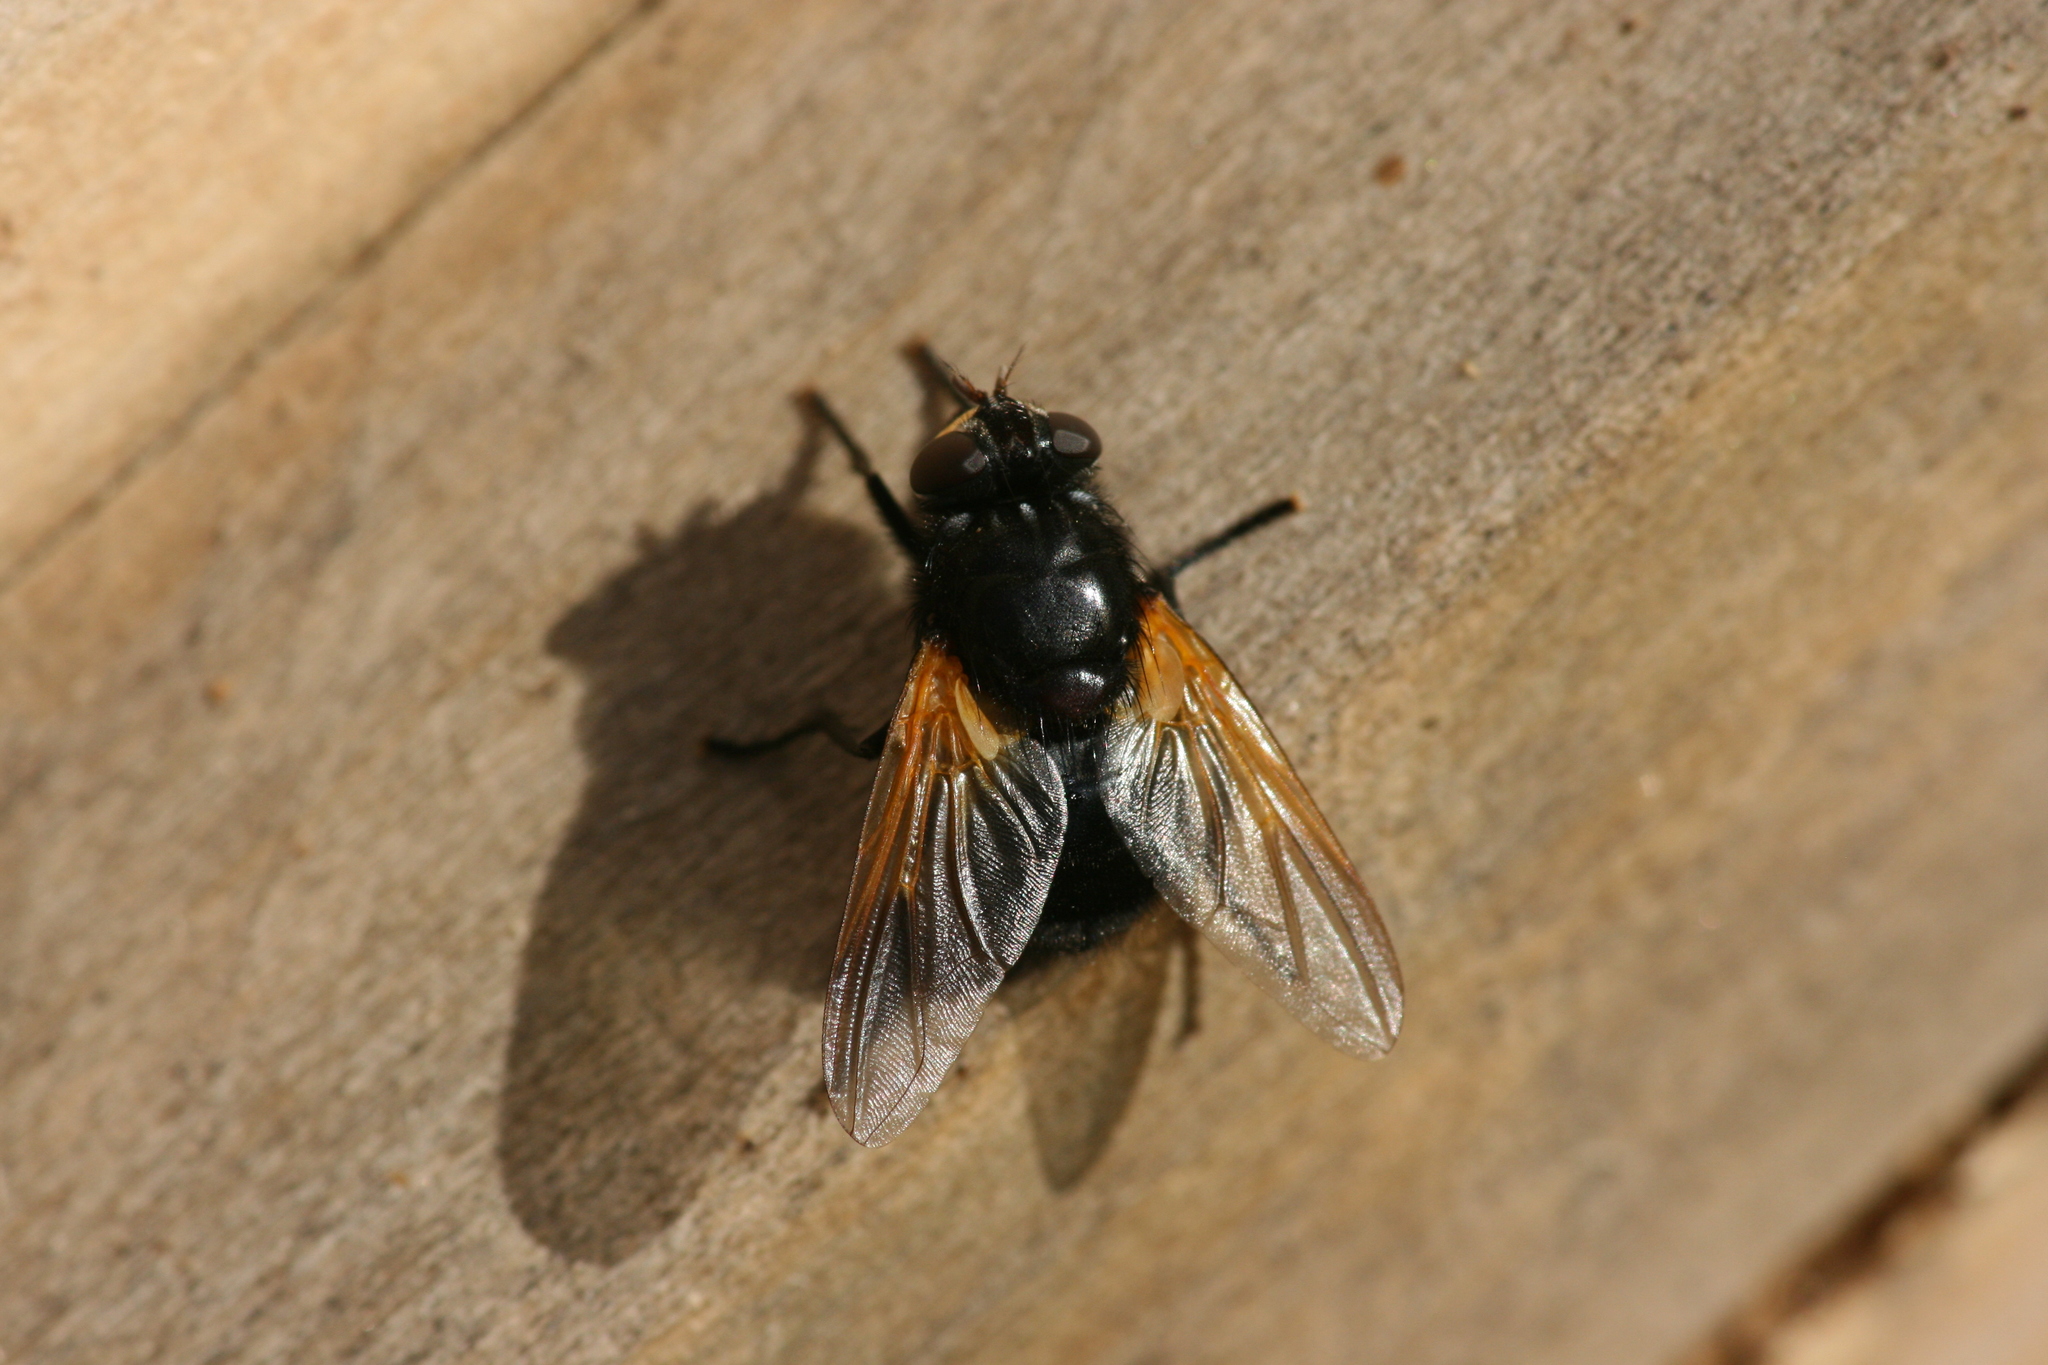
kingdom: Animalia
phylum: Arthropoda
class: Insecta
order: Diptera
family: Muscidae
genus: Mesembrina
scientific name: Mesembrina meridiana
